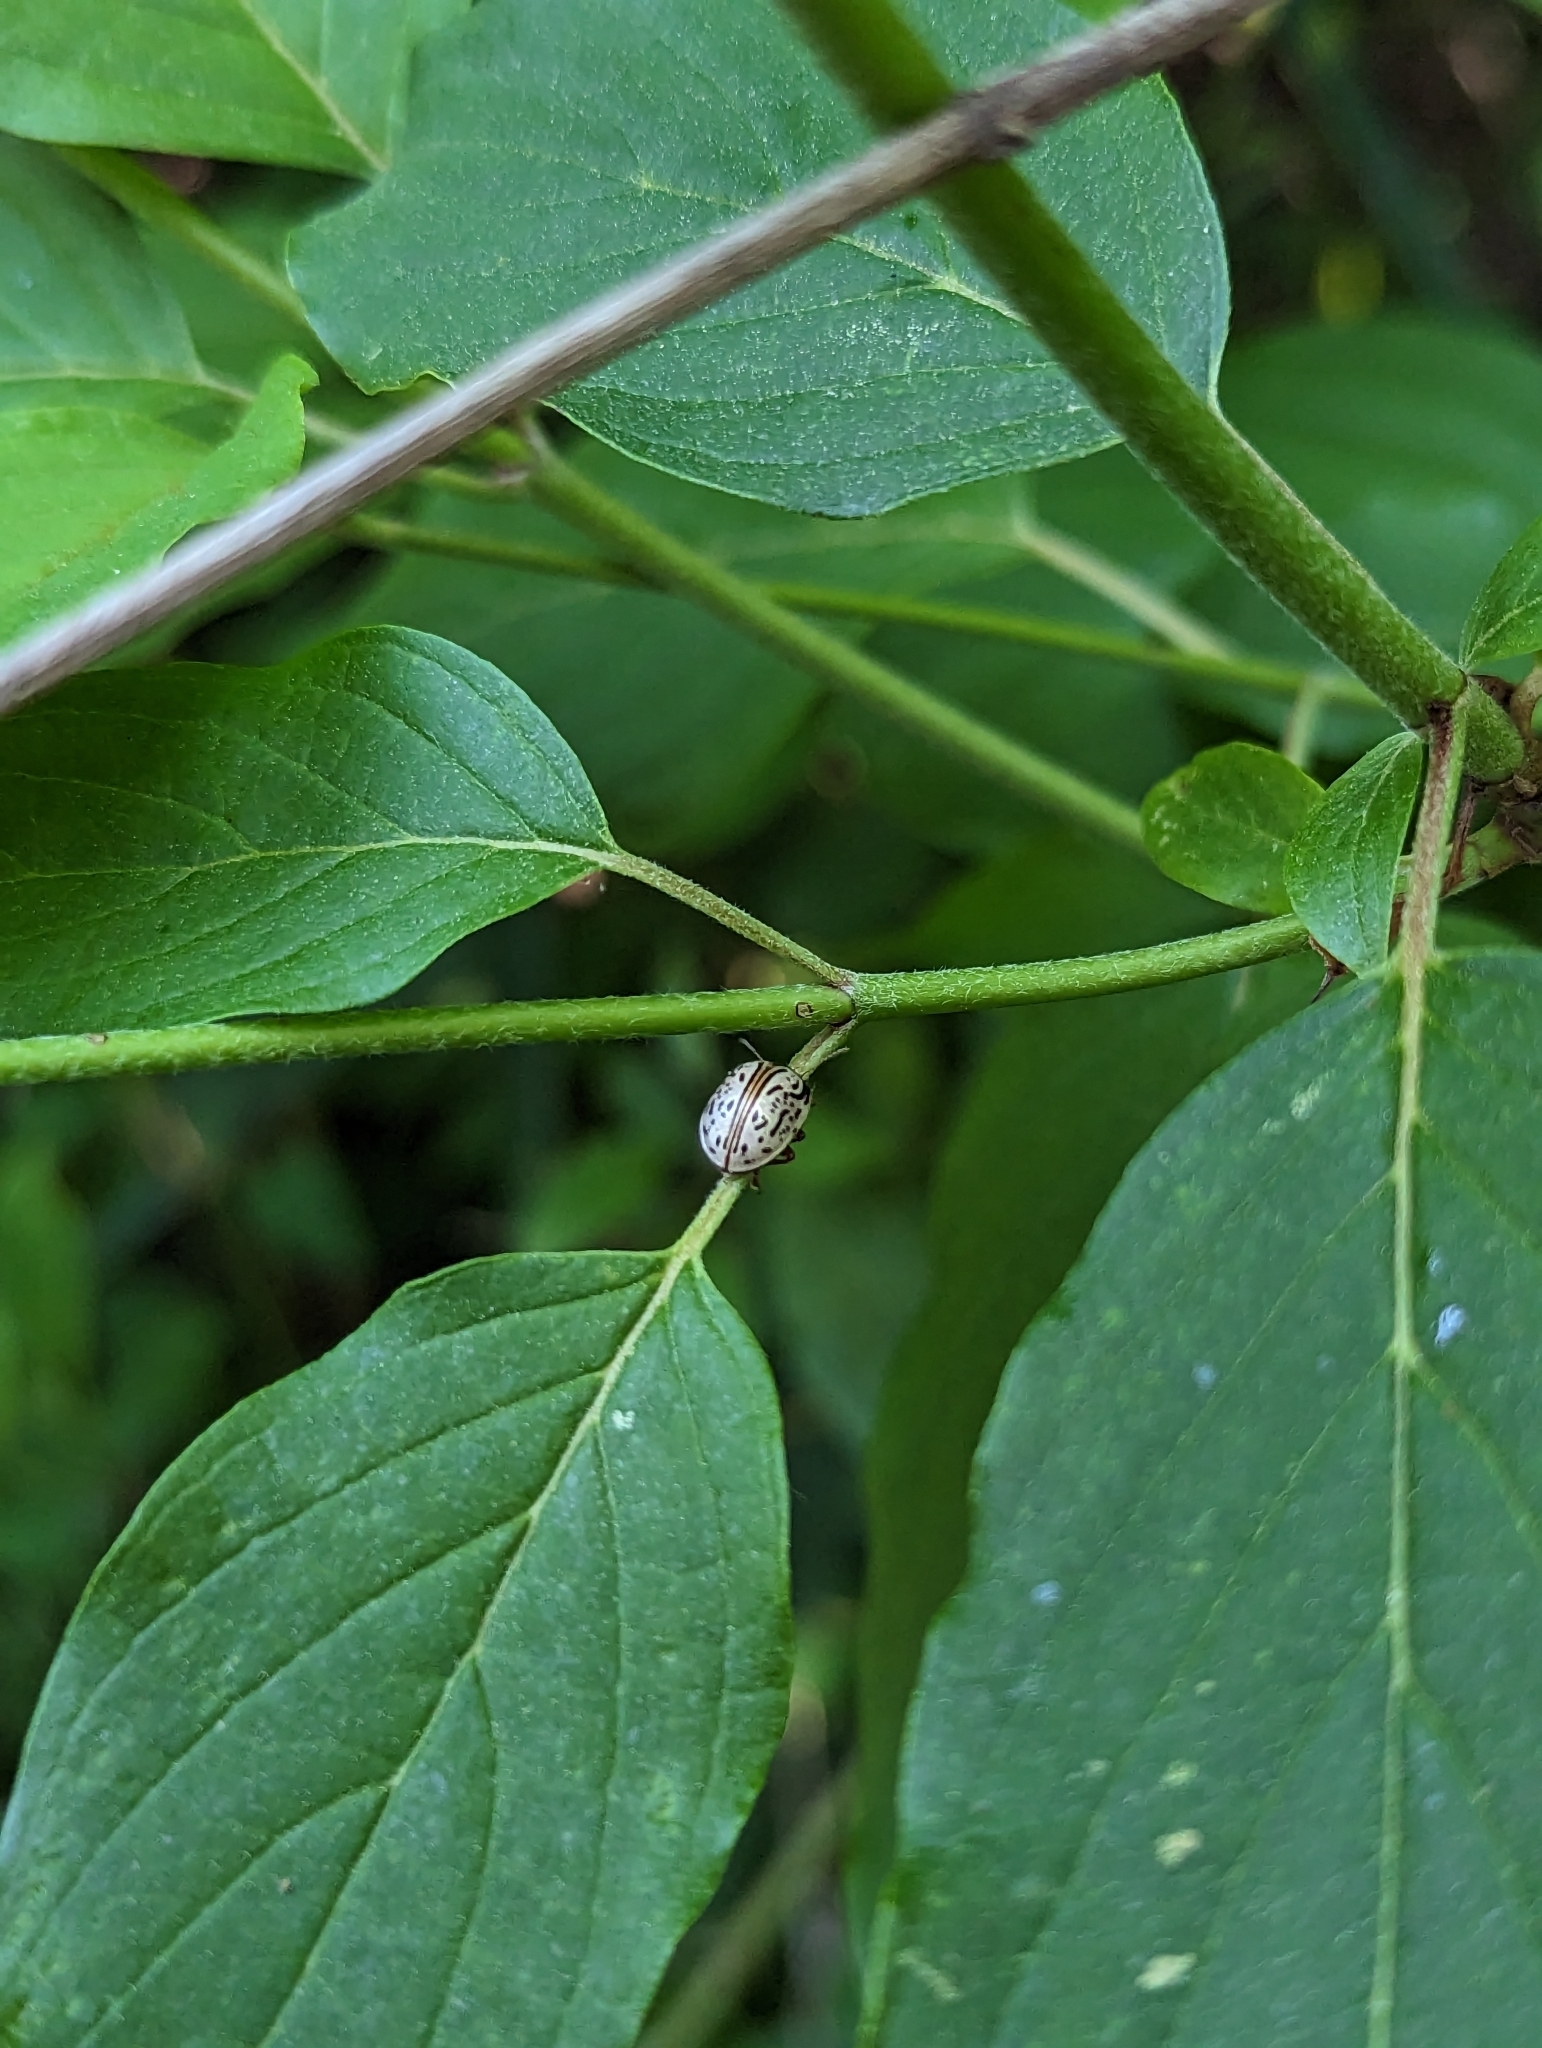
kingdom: Animalia
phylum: Arthropoda
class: Insecta
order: Coleoptera
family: Chrysomelidae
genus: Calligrapha
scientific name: Calligrapha philadelphica
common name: Dogwood leaf beetle
